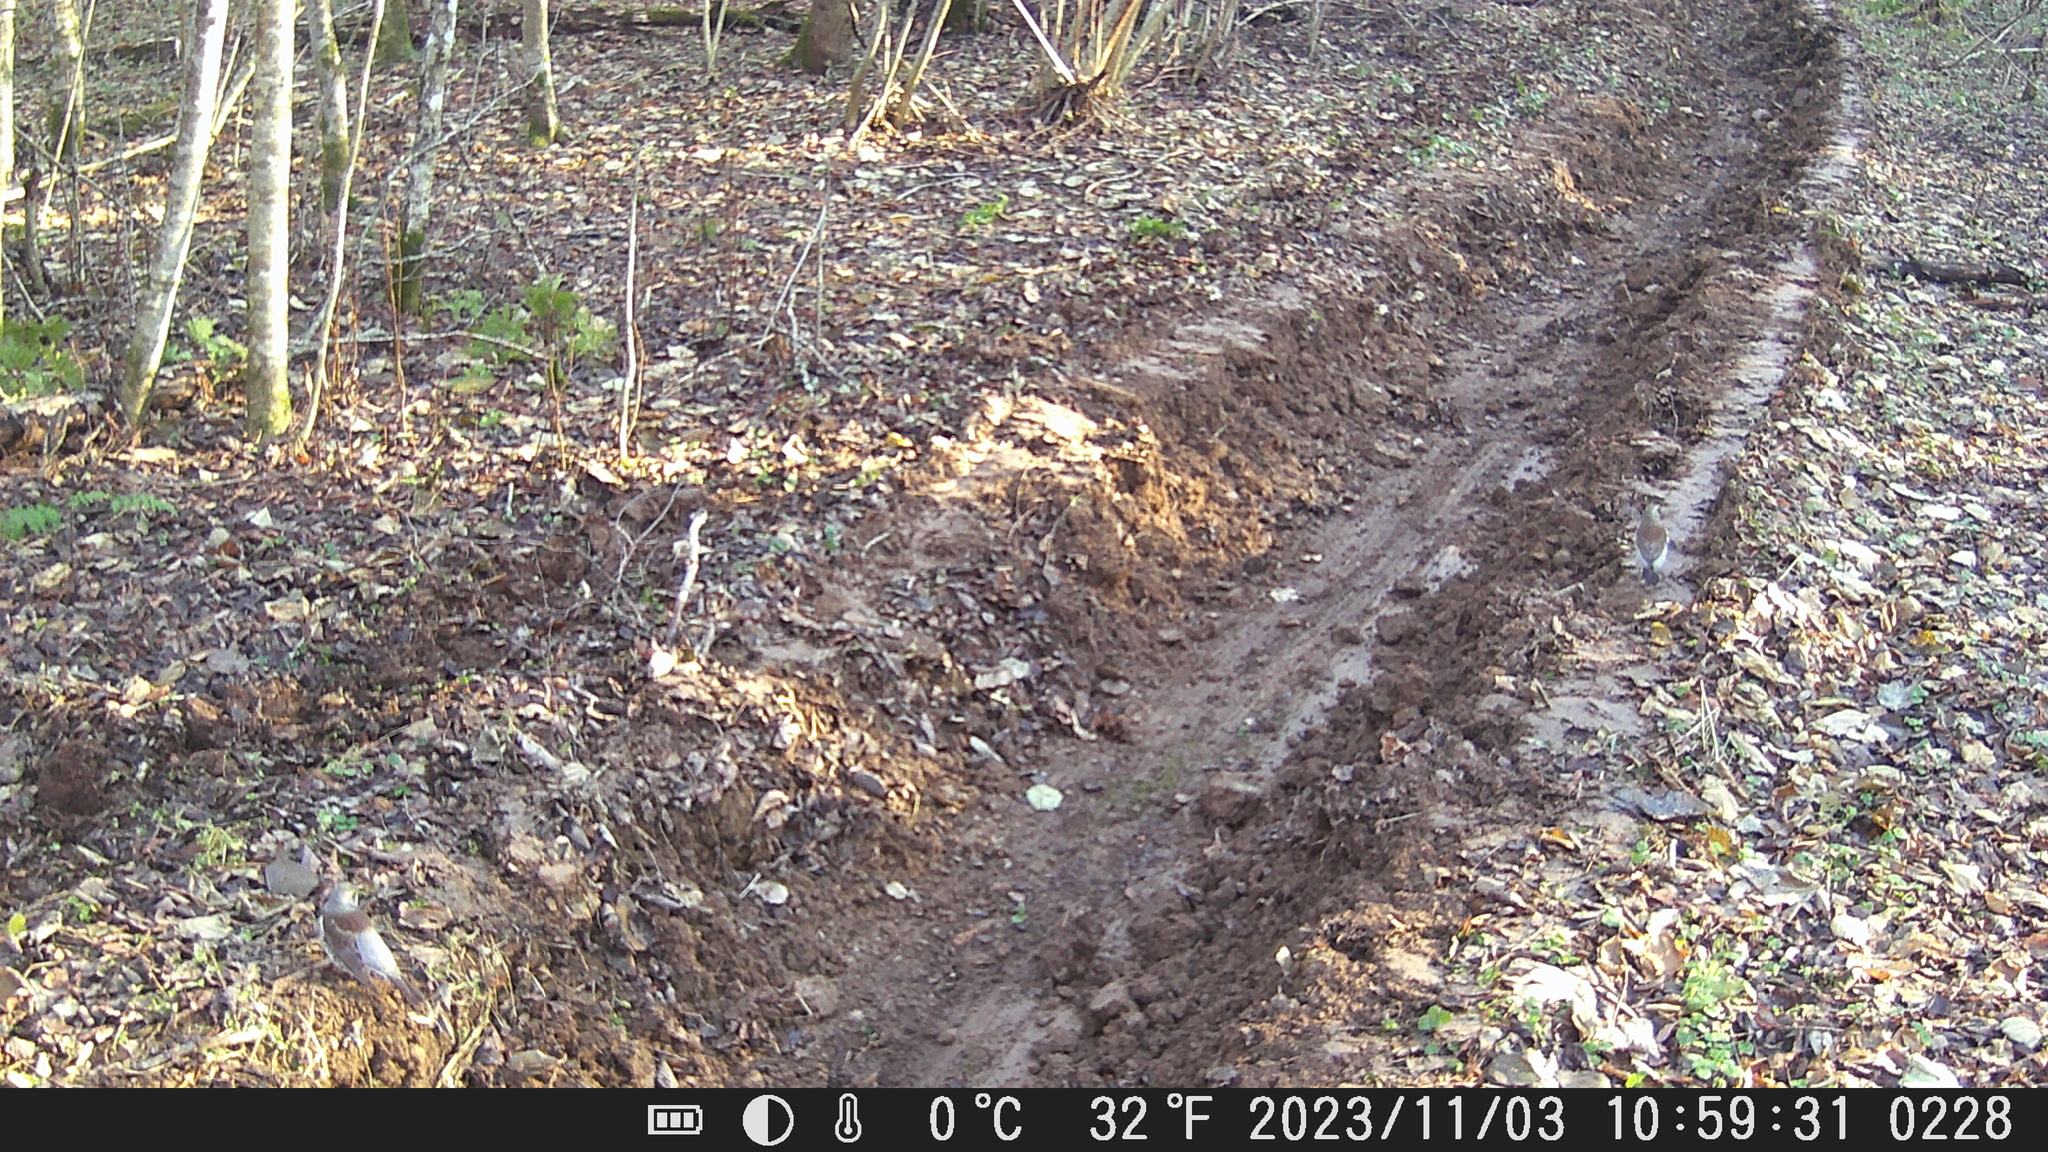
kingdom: Animalia
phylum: Chordata
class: Aves
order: Passeriformes
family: Turdidae
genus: Turdus
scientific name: Turdus iliacus
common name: Redwing
